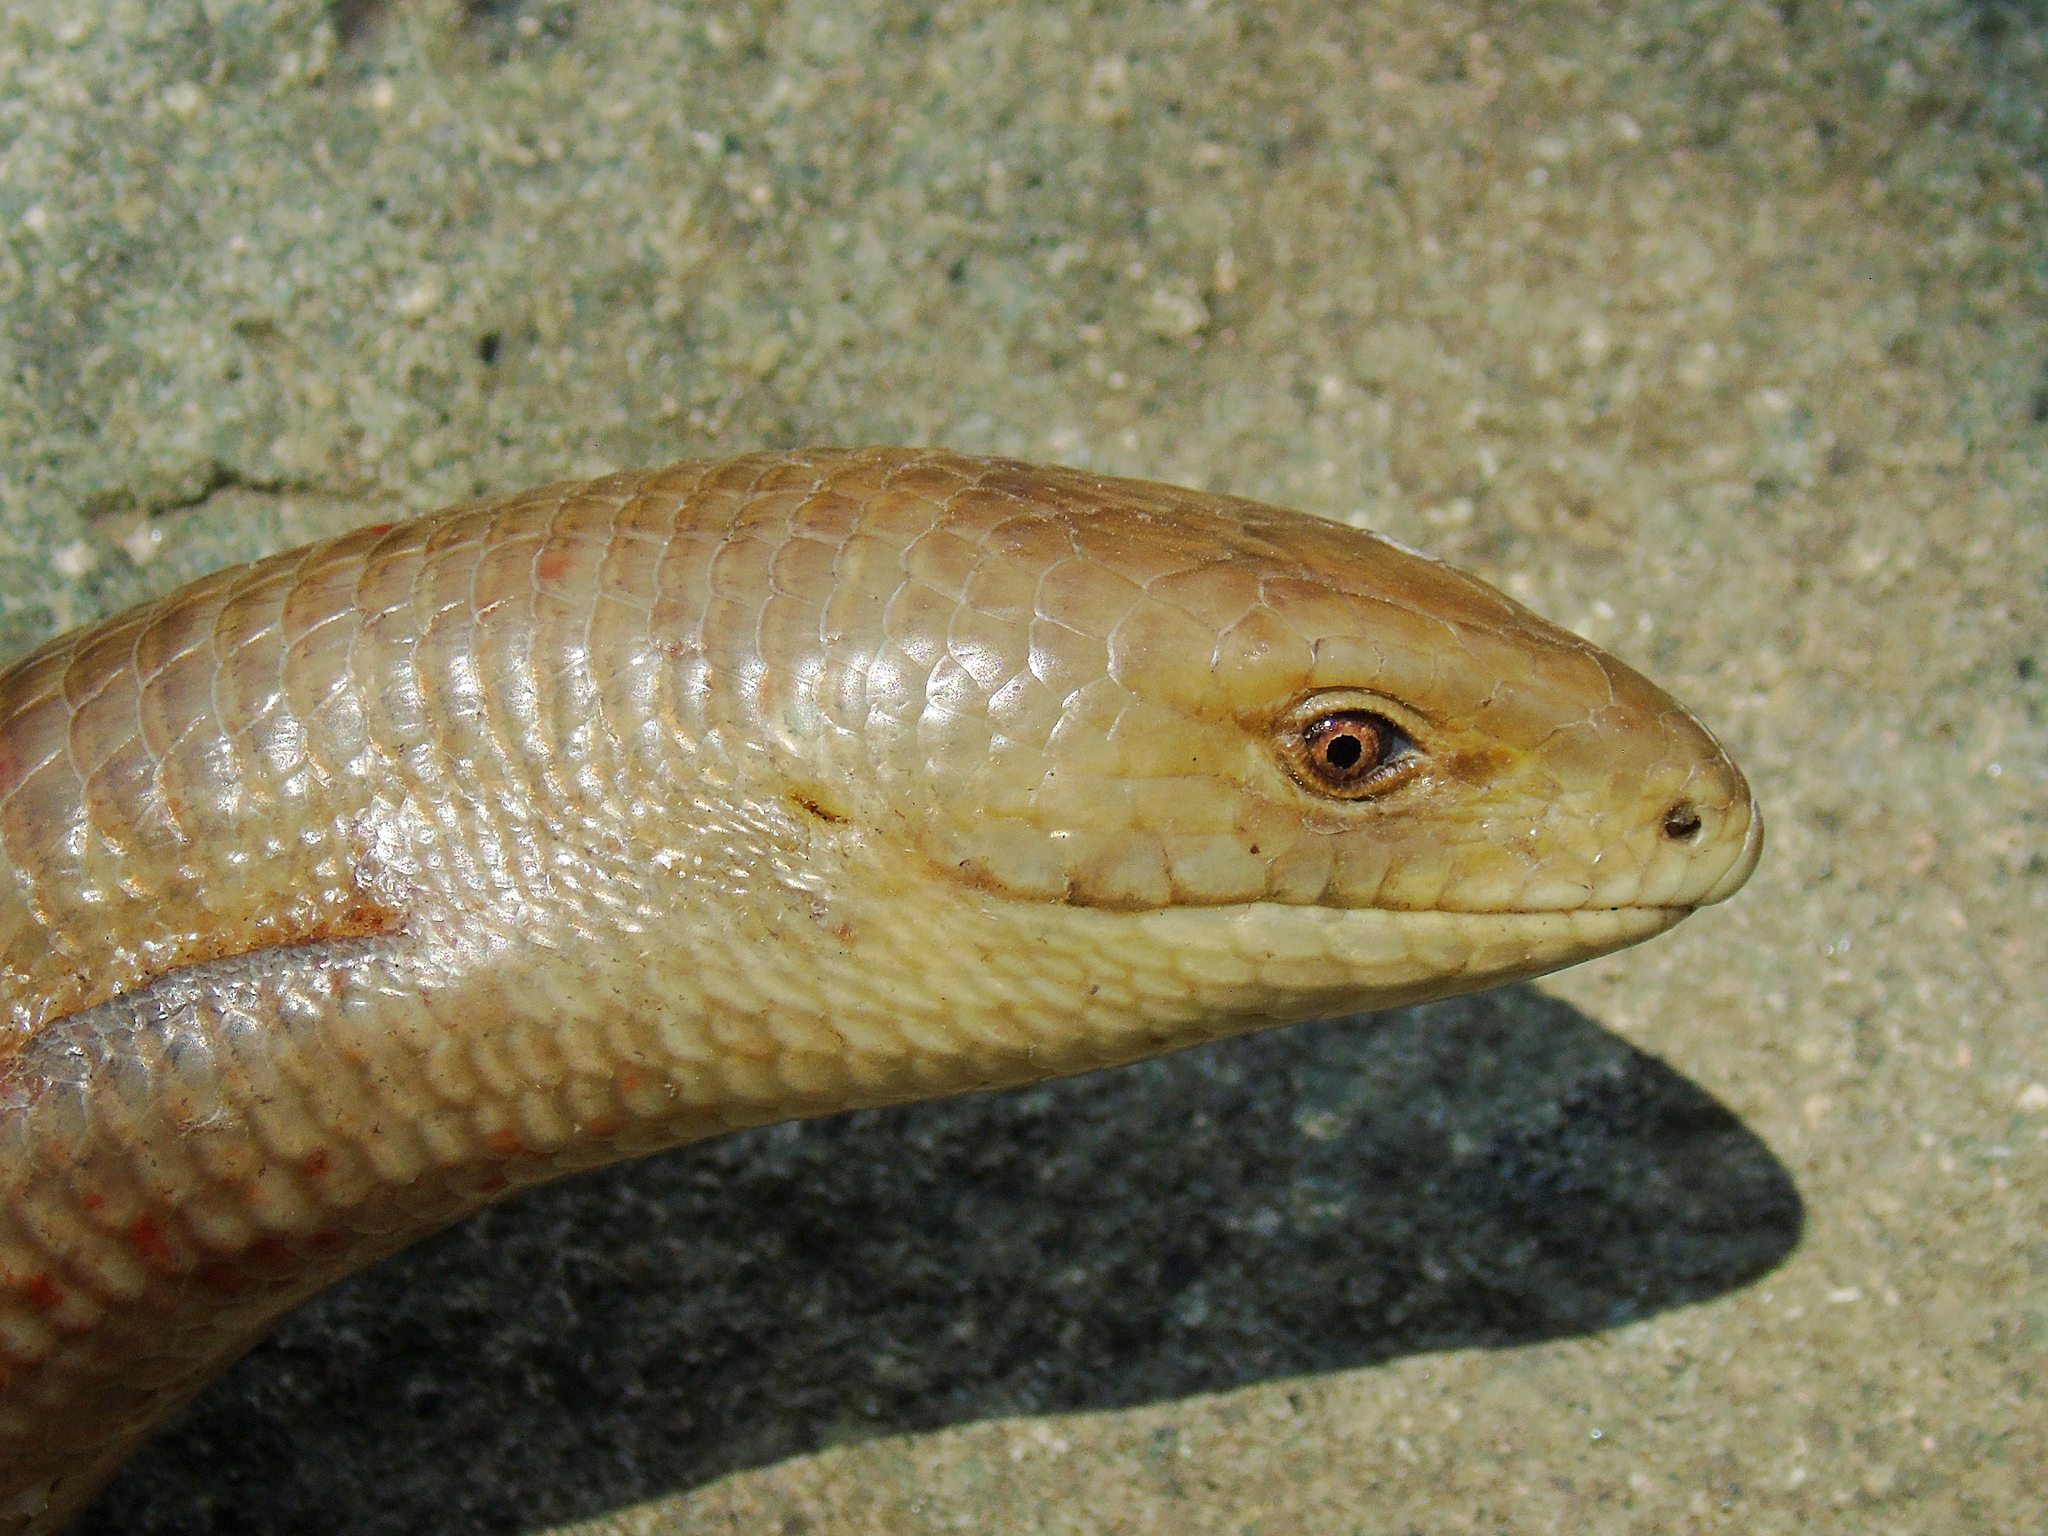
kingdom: Animalia
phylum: Chordata
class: Squamata
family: Anguidae
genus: Pseudopus
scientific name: Pseudopus apodus
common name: European glass lizard
